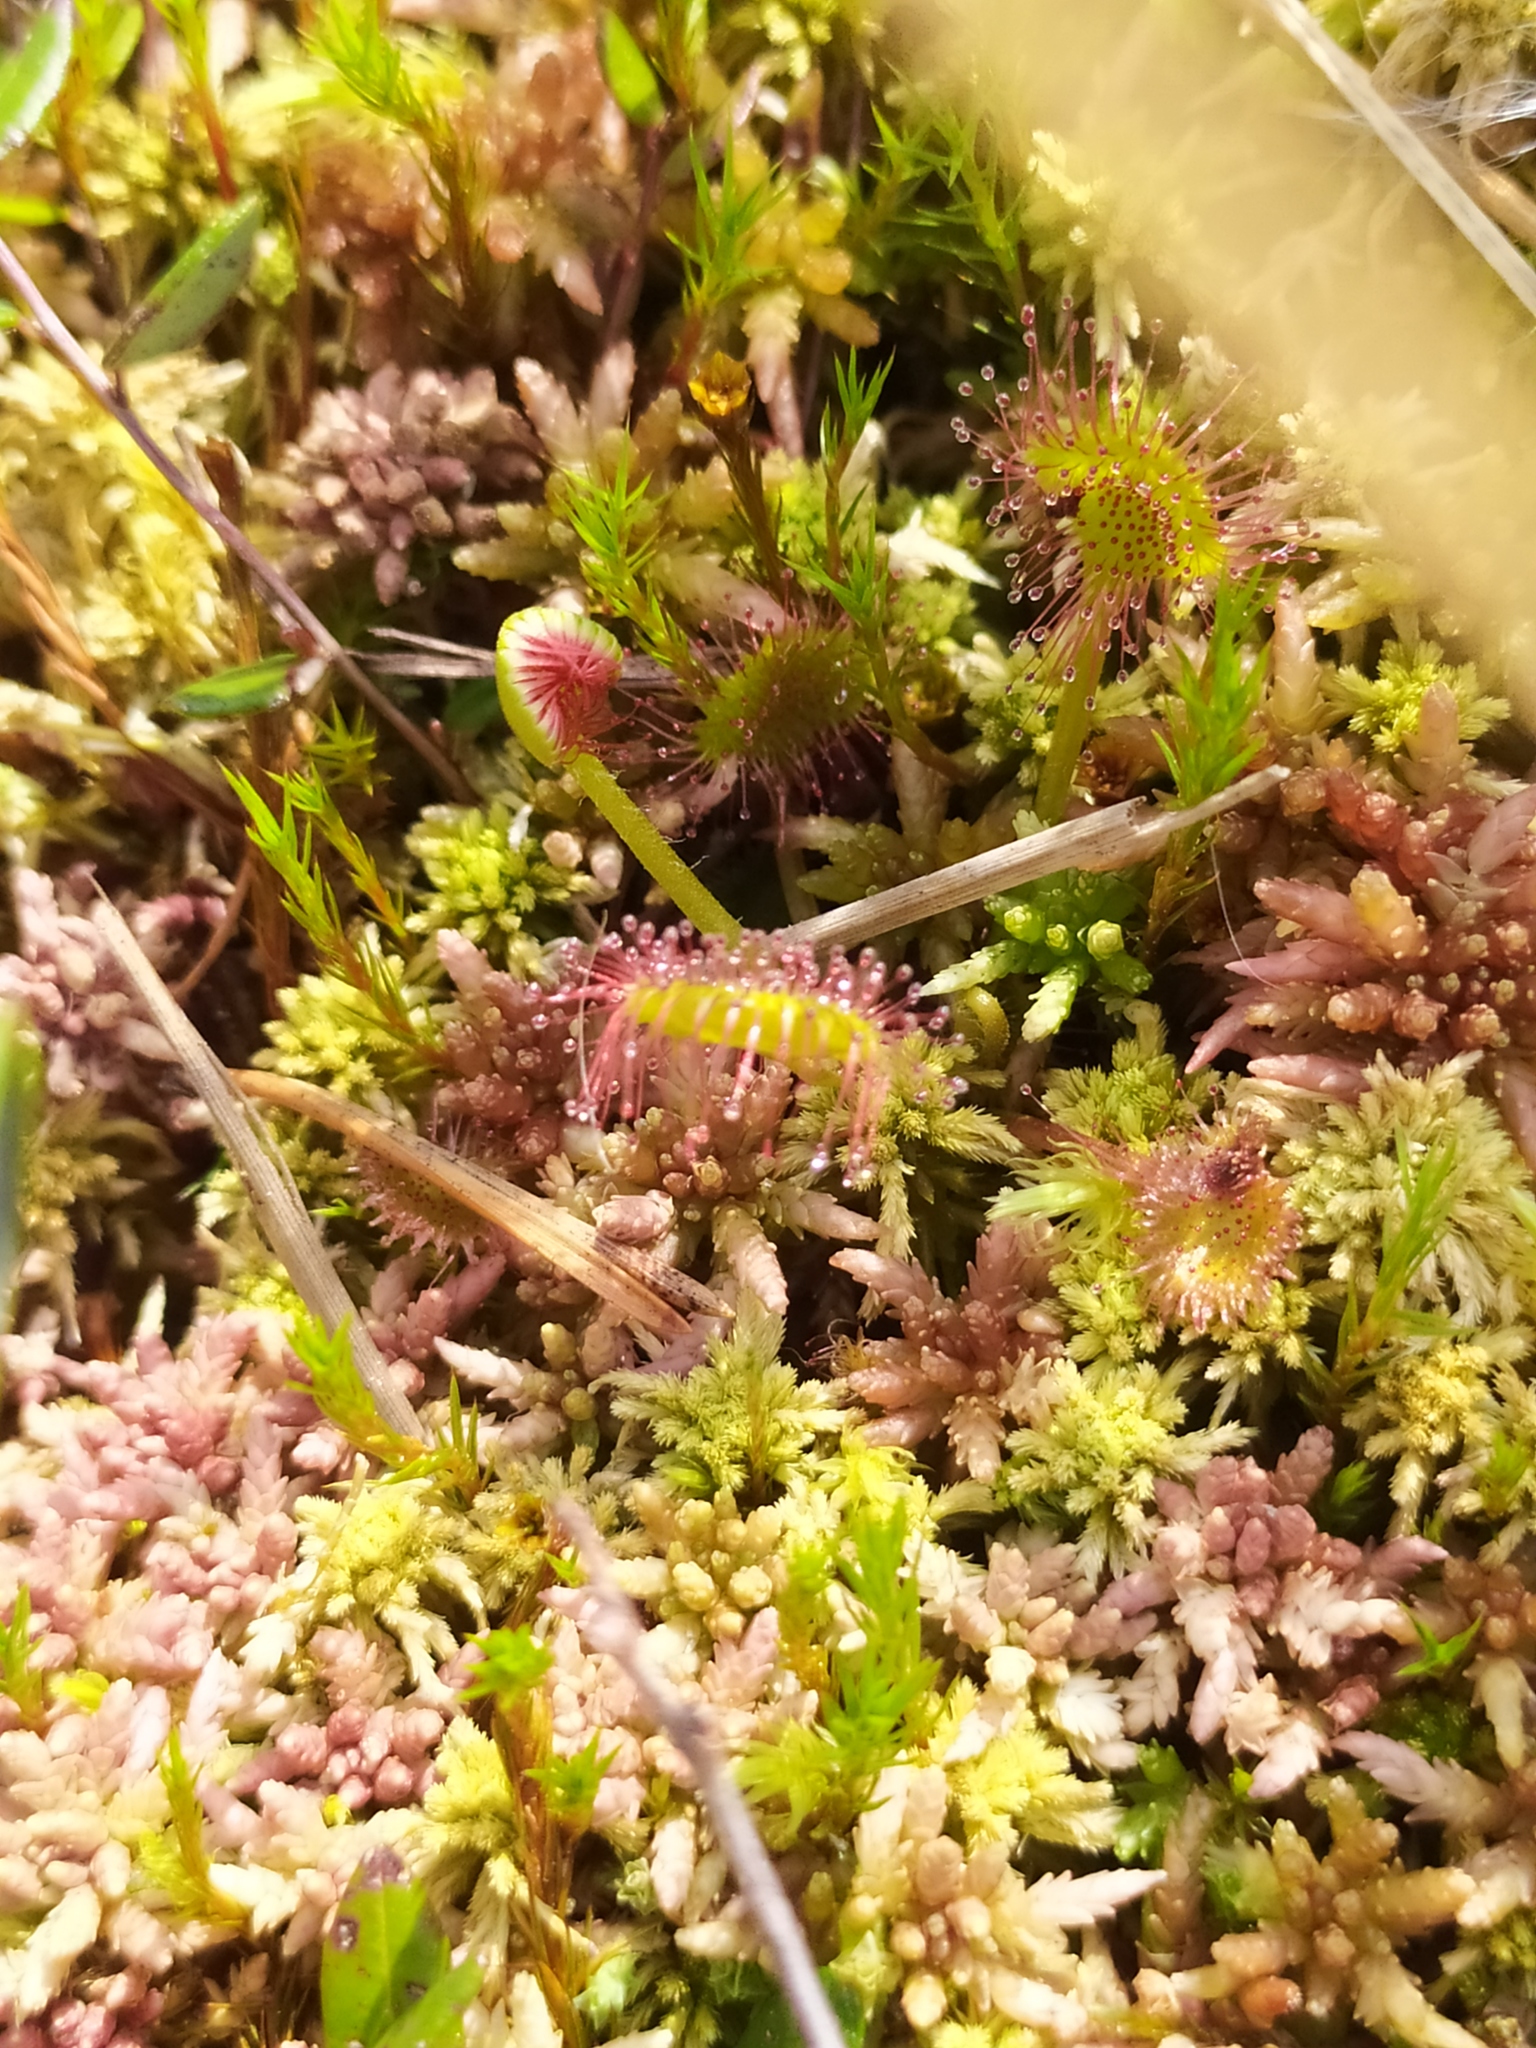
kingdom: Plantae
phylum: Tracheophyta
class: Magnoliopsida
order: Caryophyllales
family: Droseraceae
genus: Drosera
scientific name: Drosera rotundifolia
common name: Round-leaved sundew
